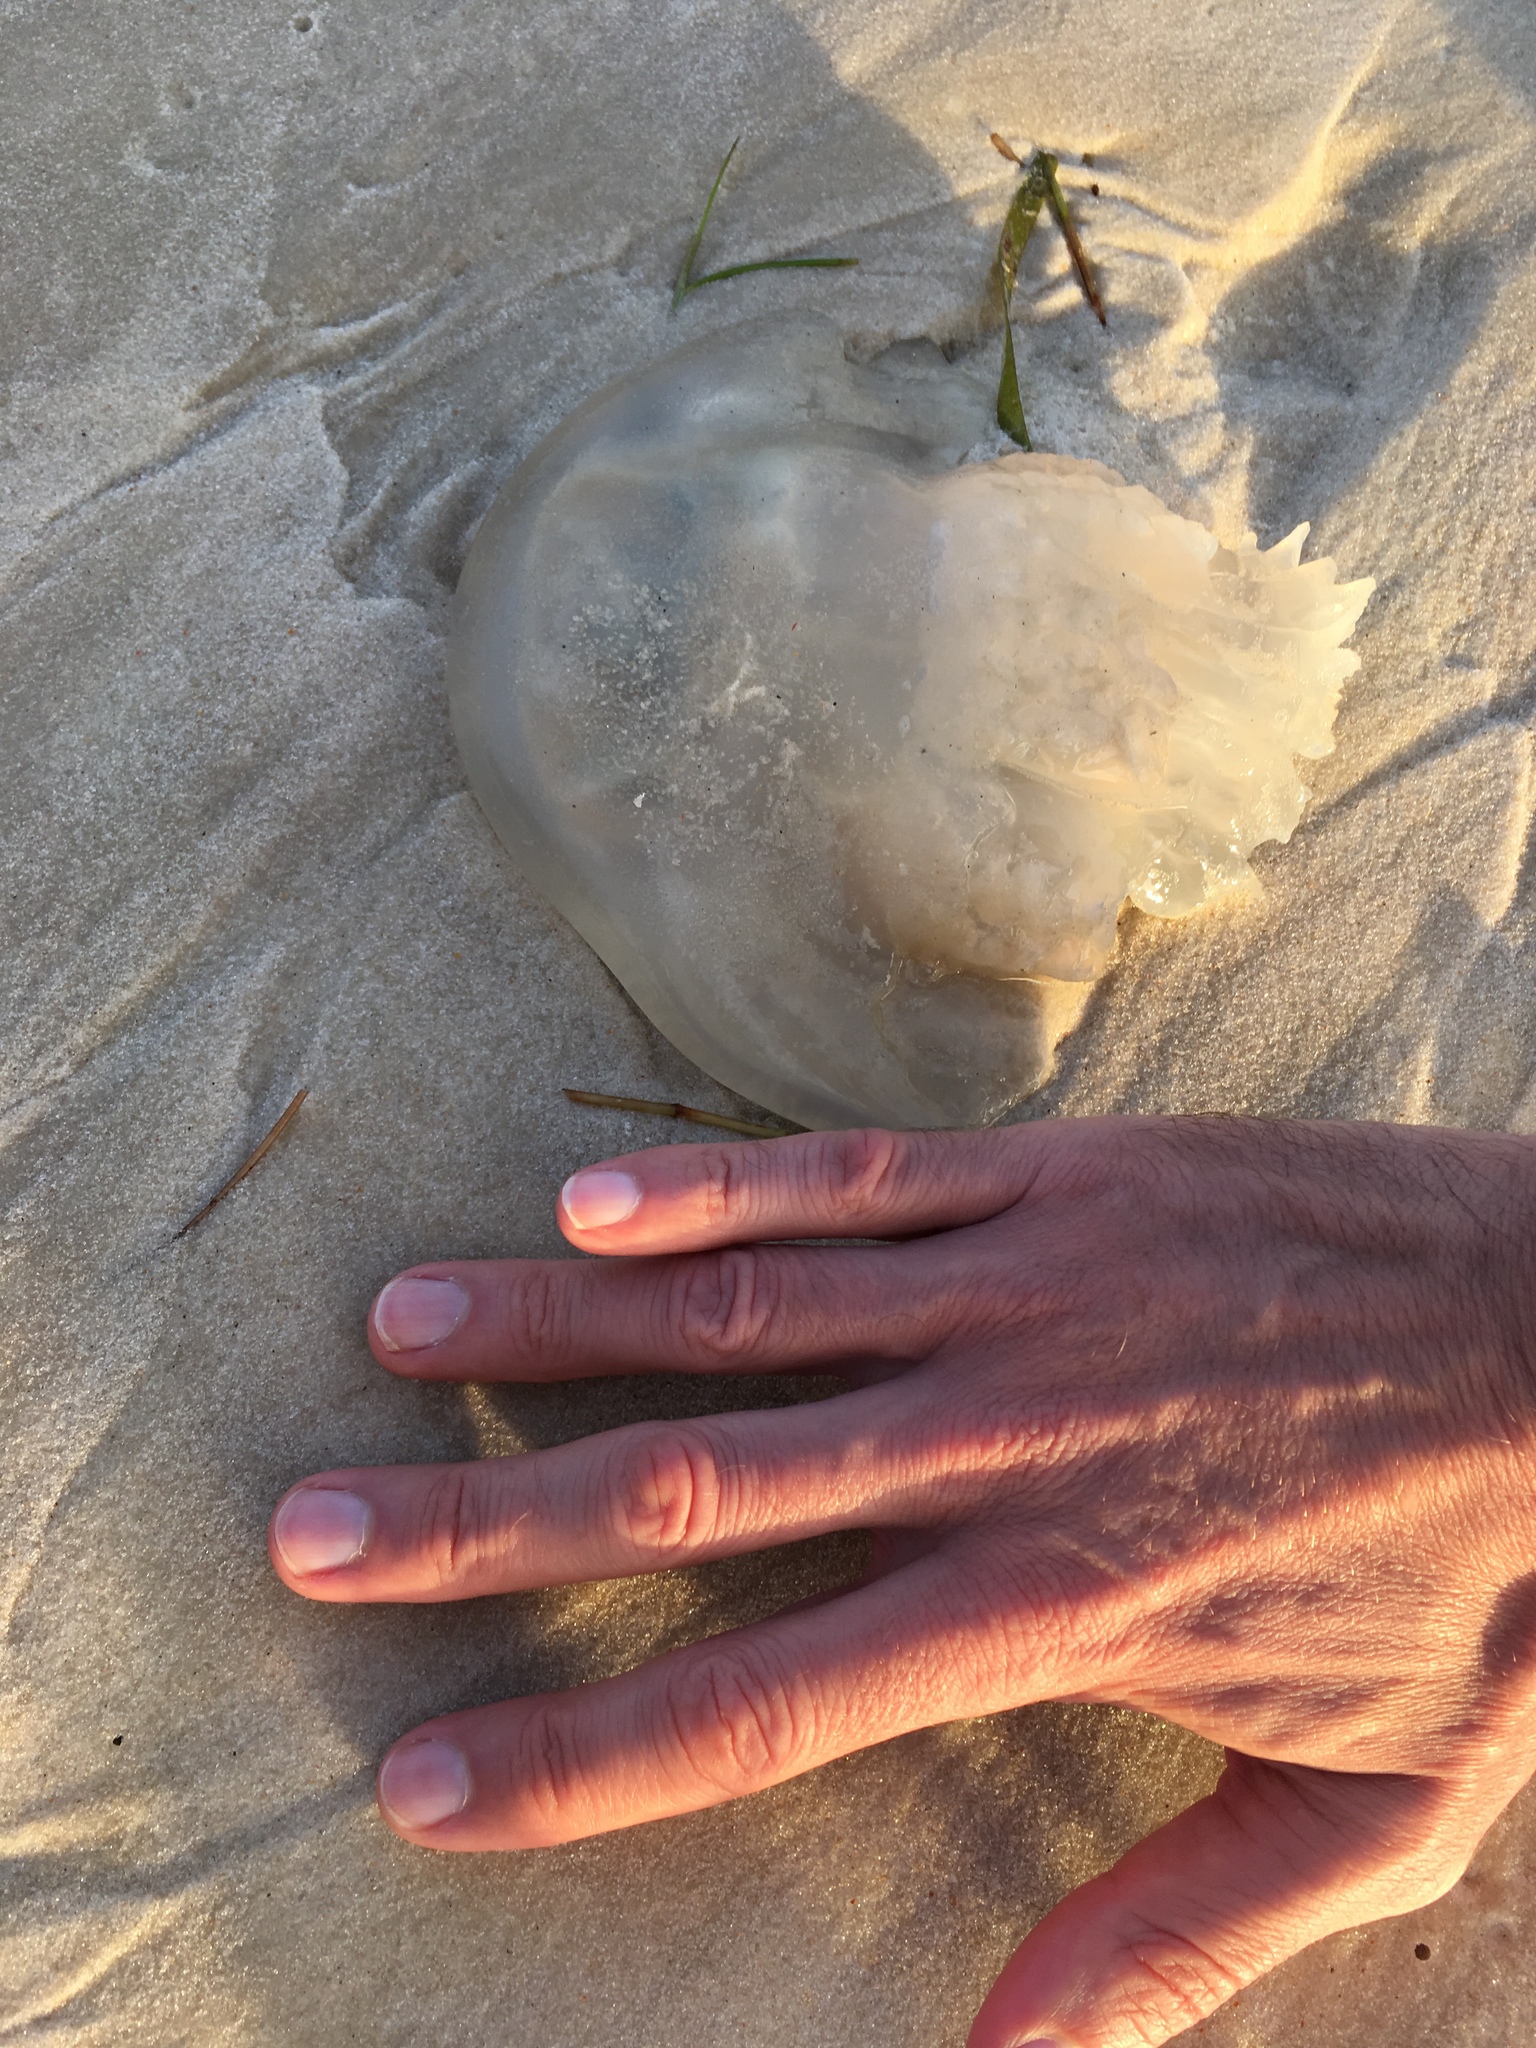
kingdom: Animalia
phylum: Cnidaria
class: Scyphozoa
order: Rhizostomeae
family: Stomolophidae
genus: Stomolophus
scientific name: Stomolophus meleagris
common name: Cabbagehead
